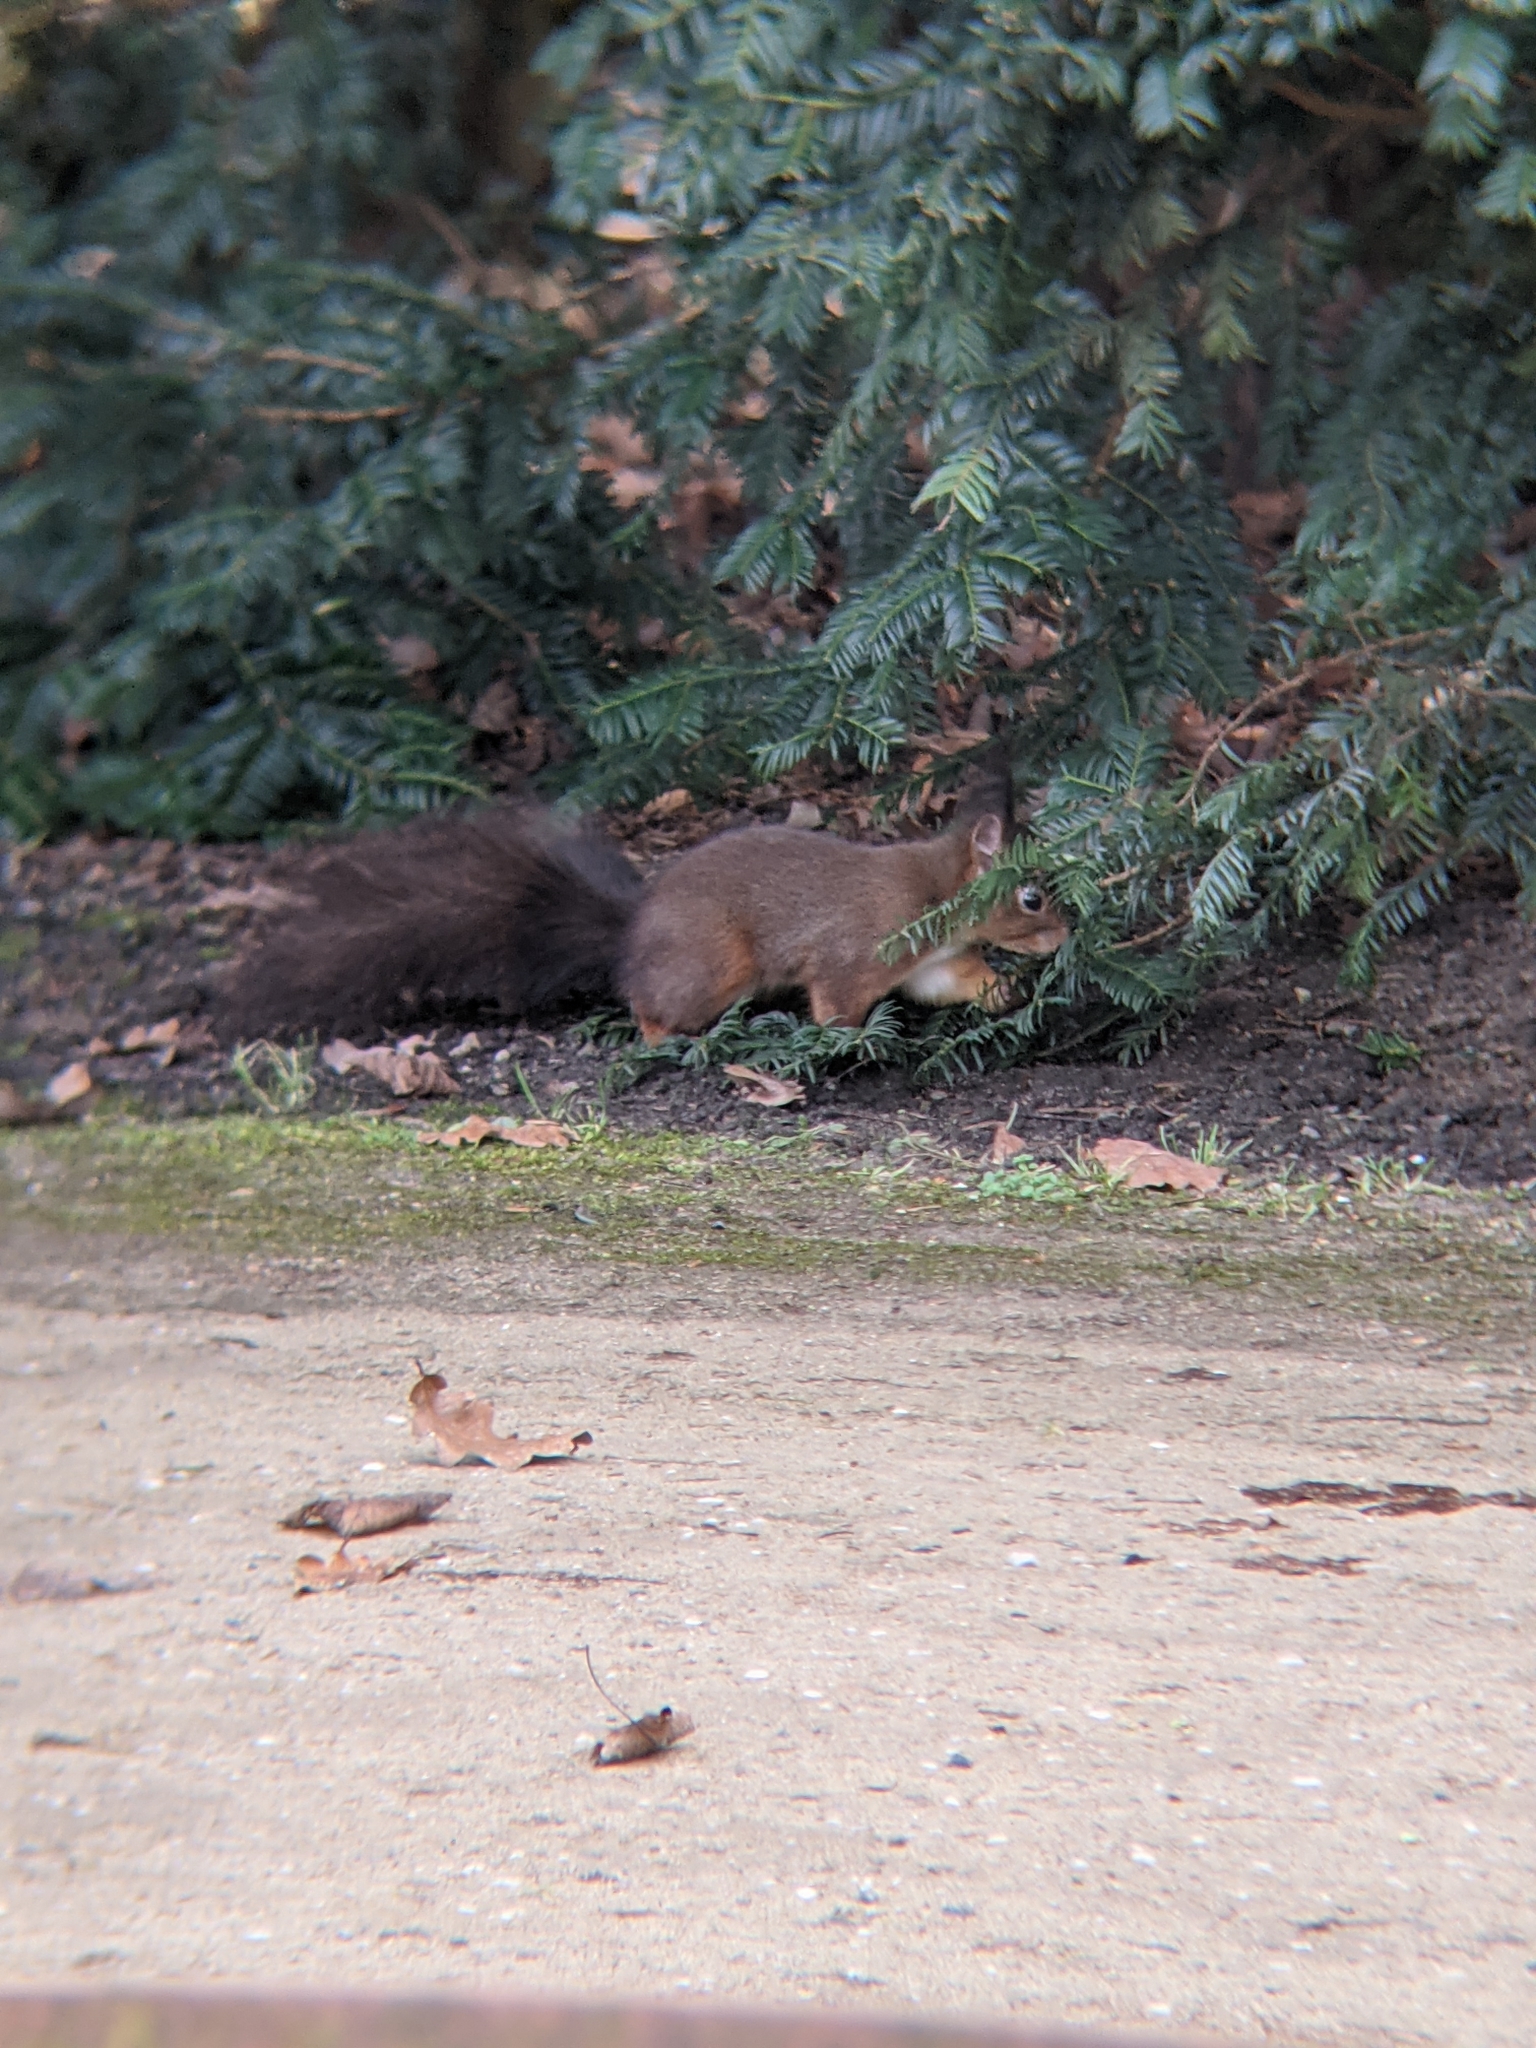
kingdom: Animalia
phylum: Chordata
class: Mammalia
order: Rodentia
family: Sciuridae
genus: Sciurus
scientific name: Sciurus vulgaris
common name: Eurasian red squirrel
